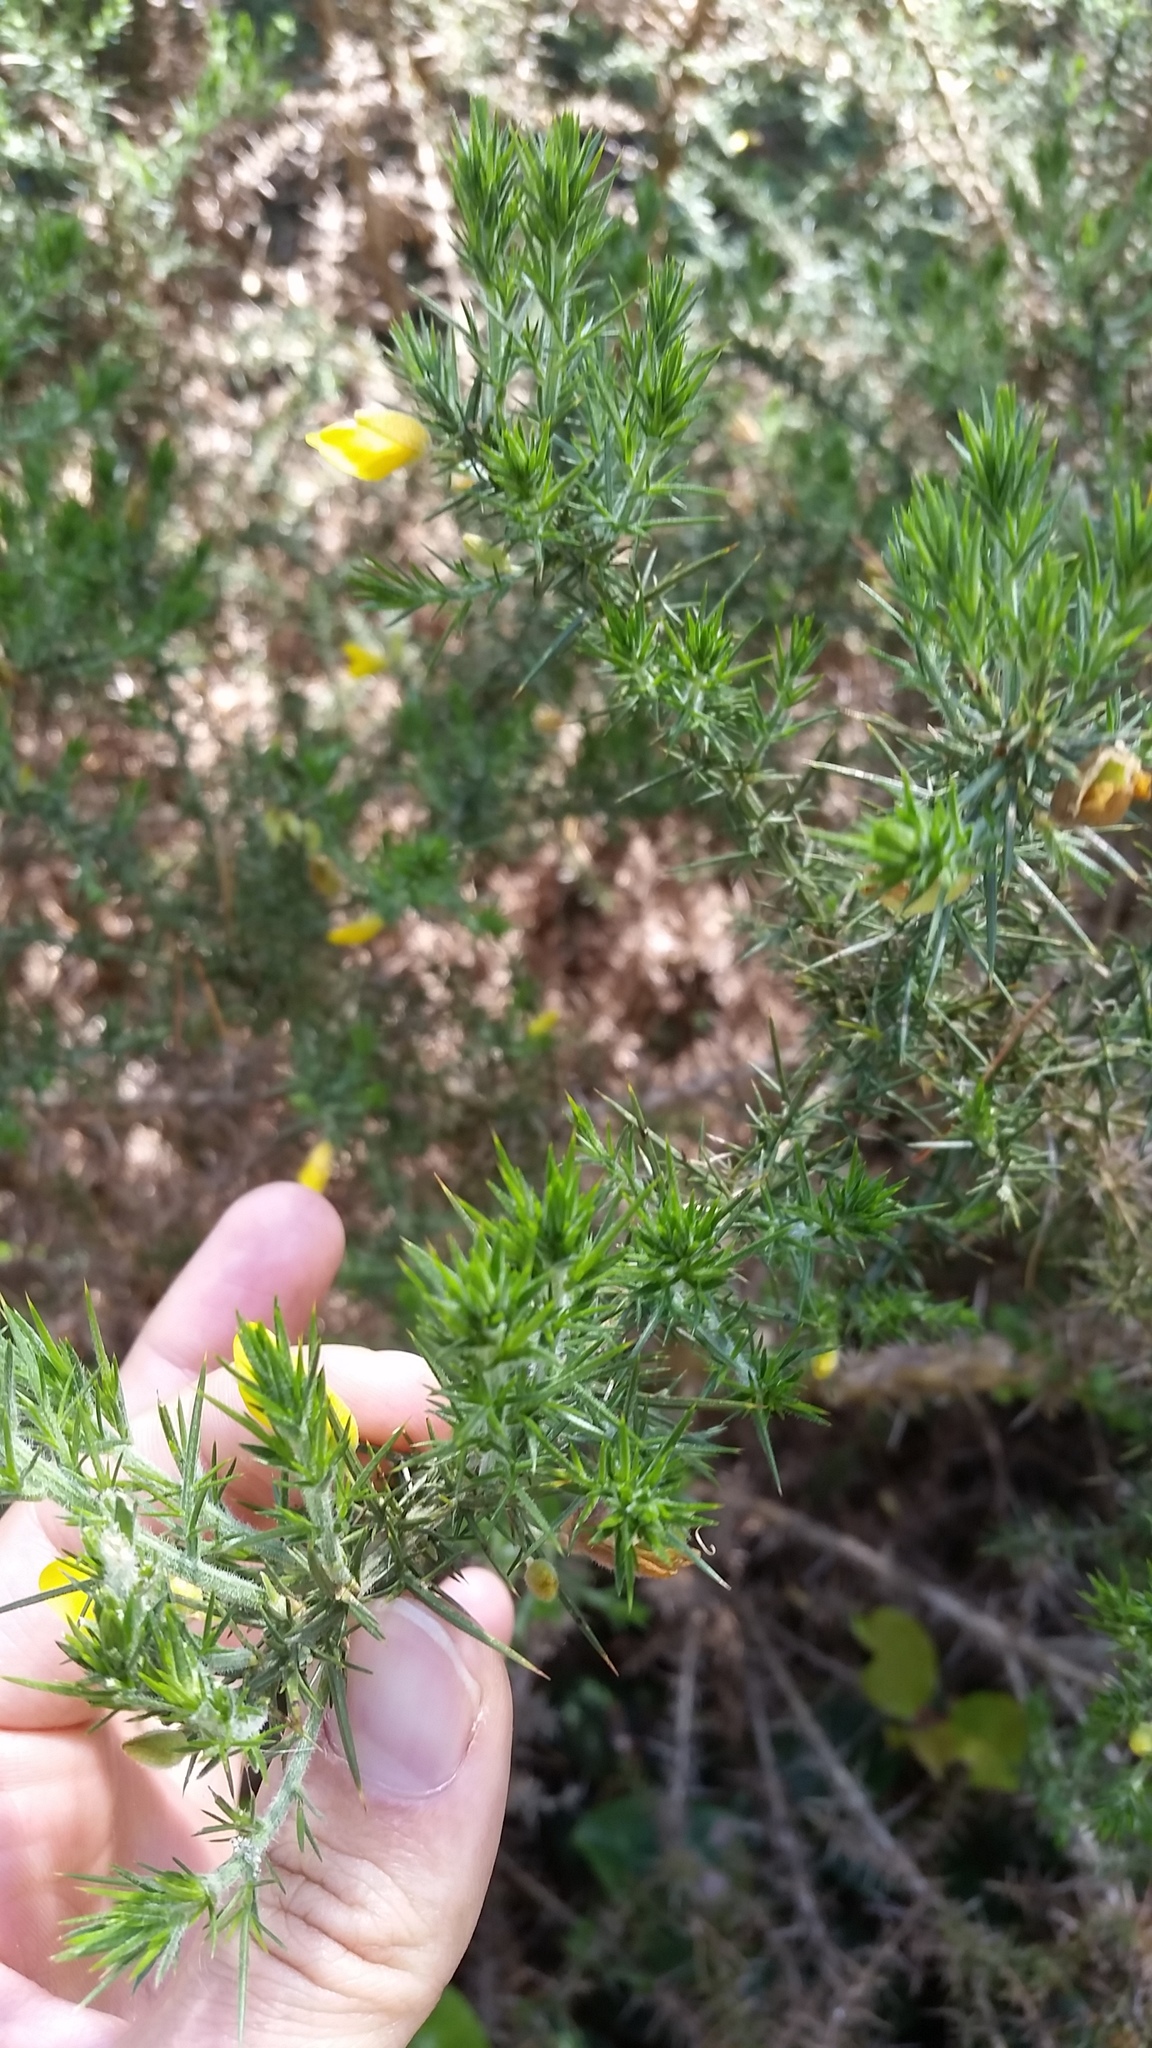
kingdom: Plantae
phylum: Tracheophyta
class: Magnoliopsida
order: Fabales
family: Fabaceae
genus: Ulex
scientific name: Ulex europaeus
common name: Common gorse
